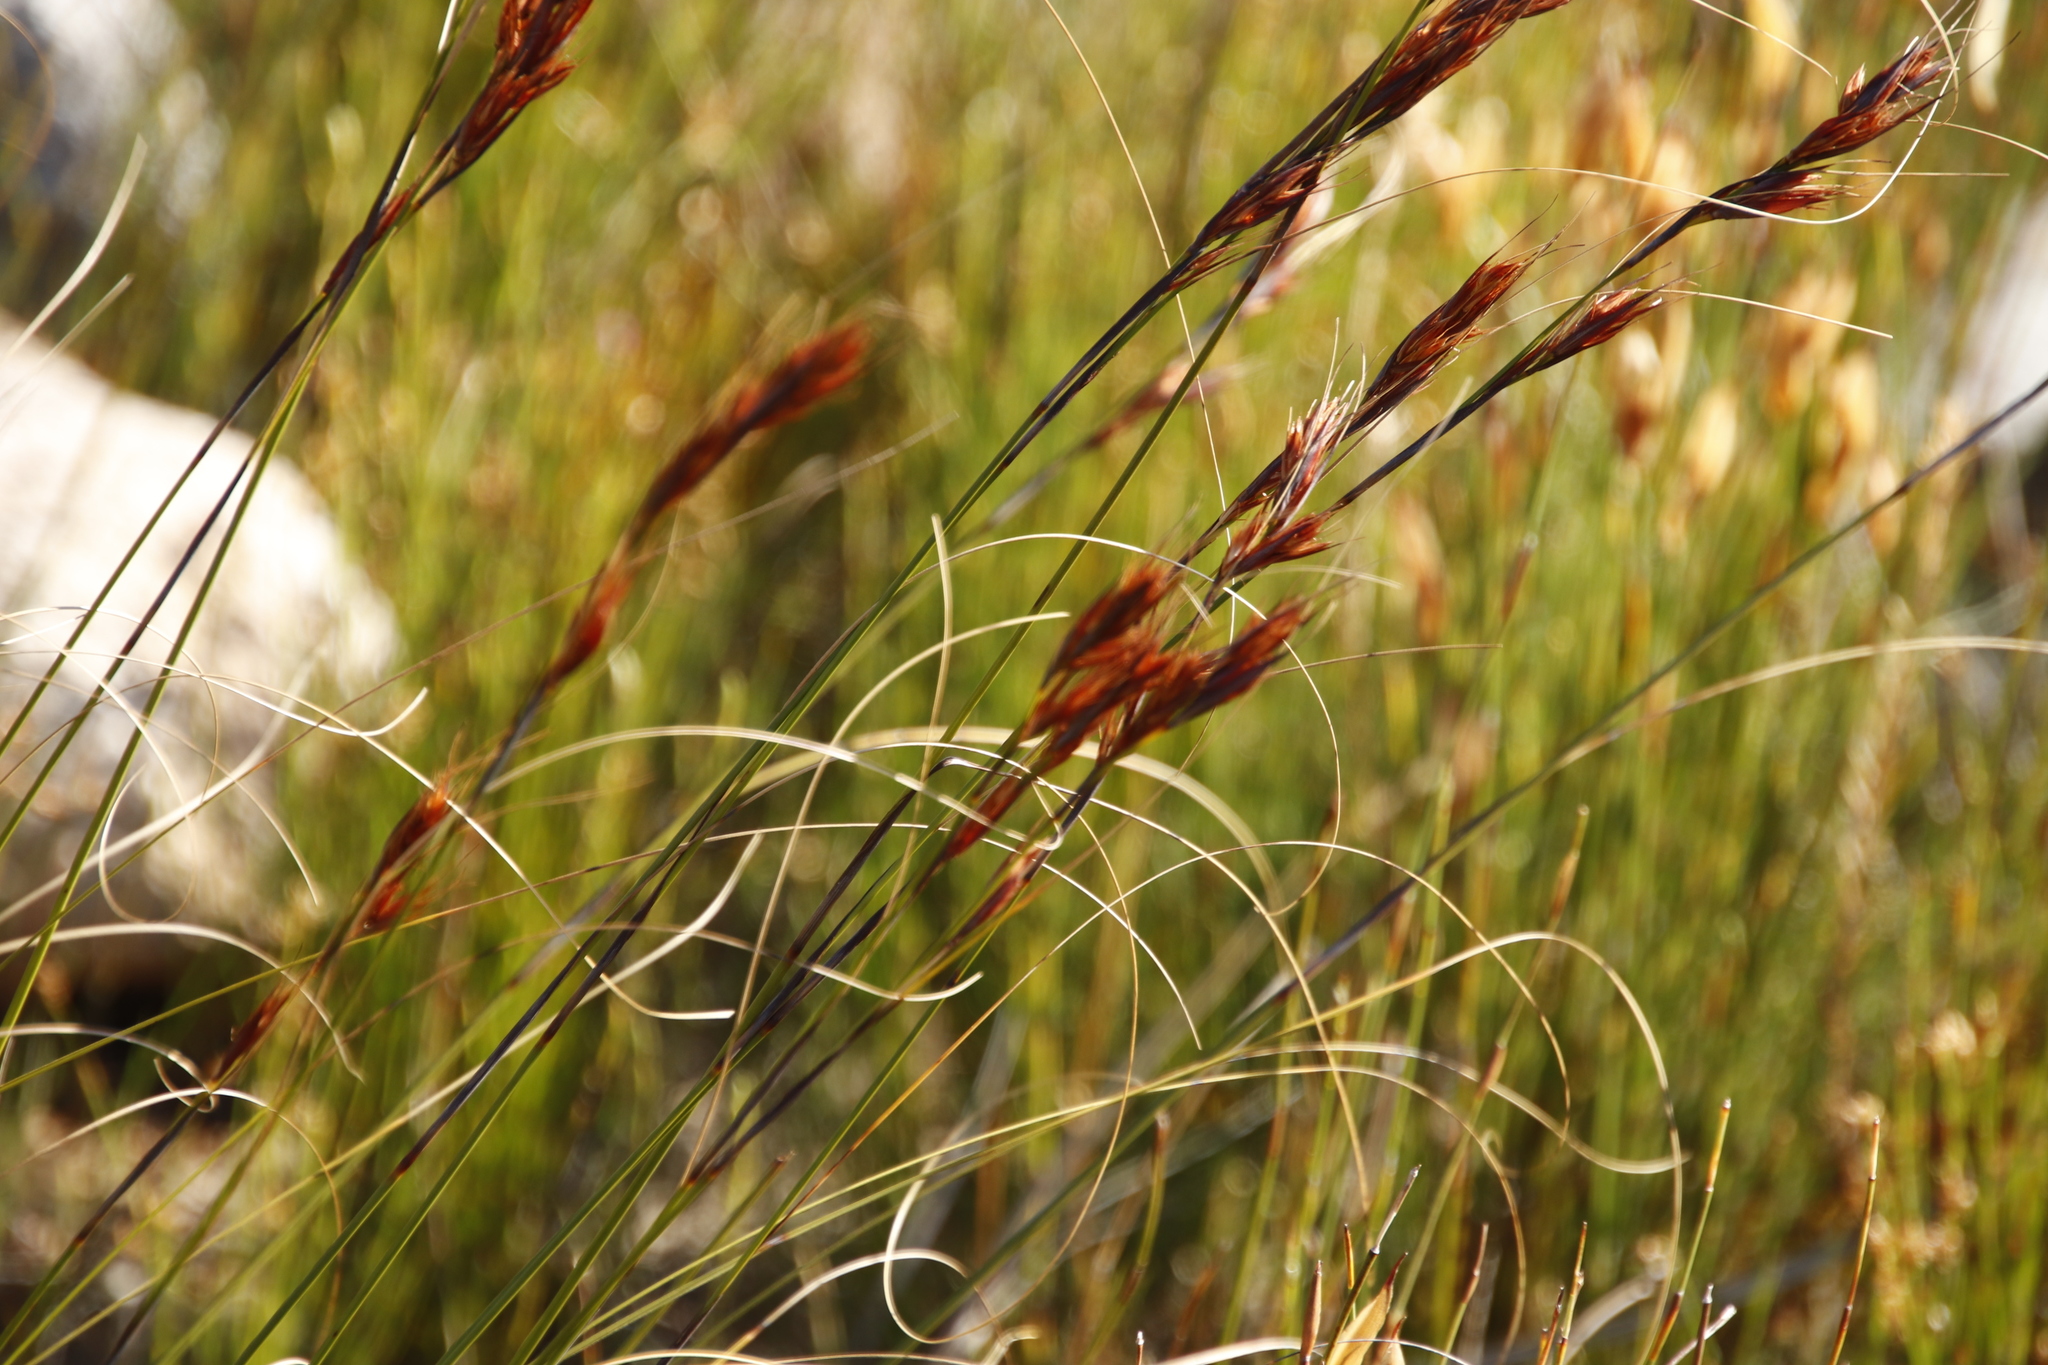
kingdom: Plantae
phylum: Tracheophyta
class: Liliopsida
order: Poales
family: Cyperaceae
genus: Tetraria
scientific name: Tetraria ustulata
